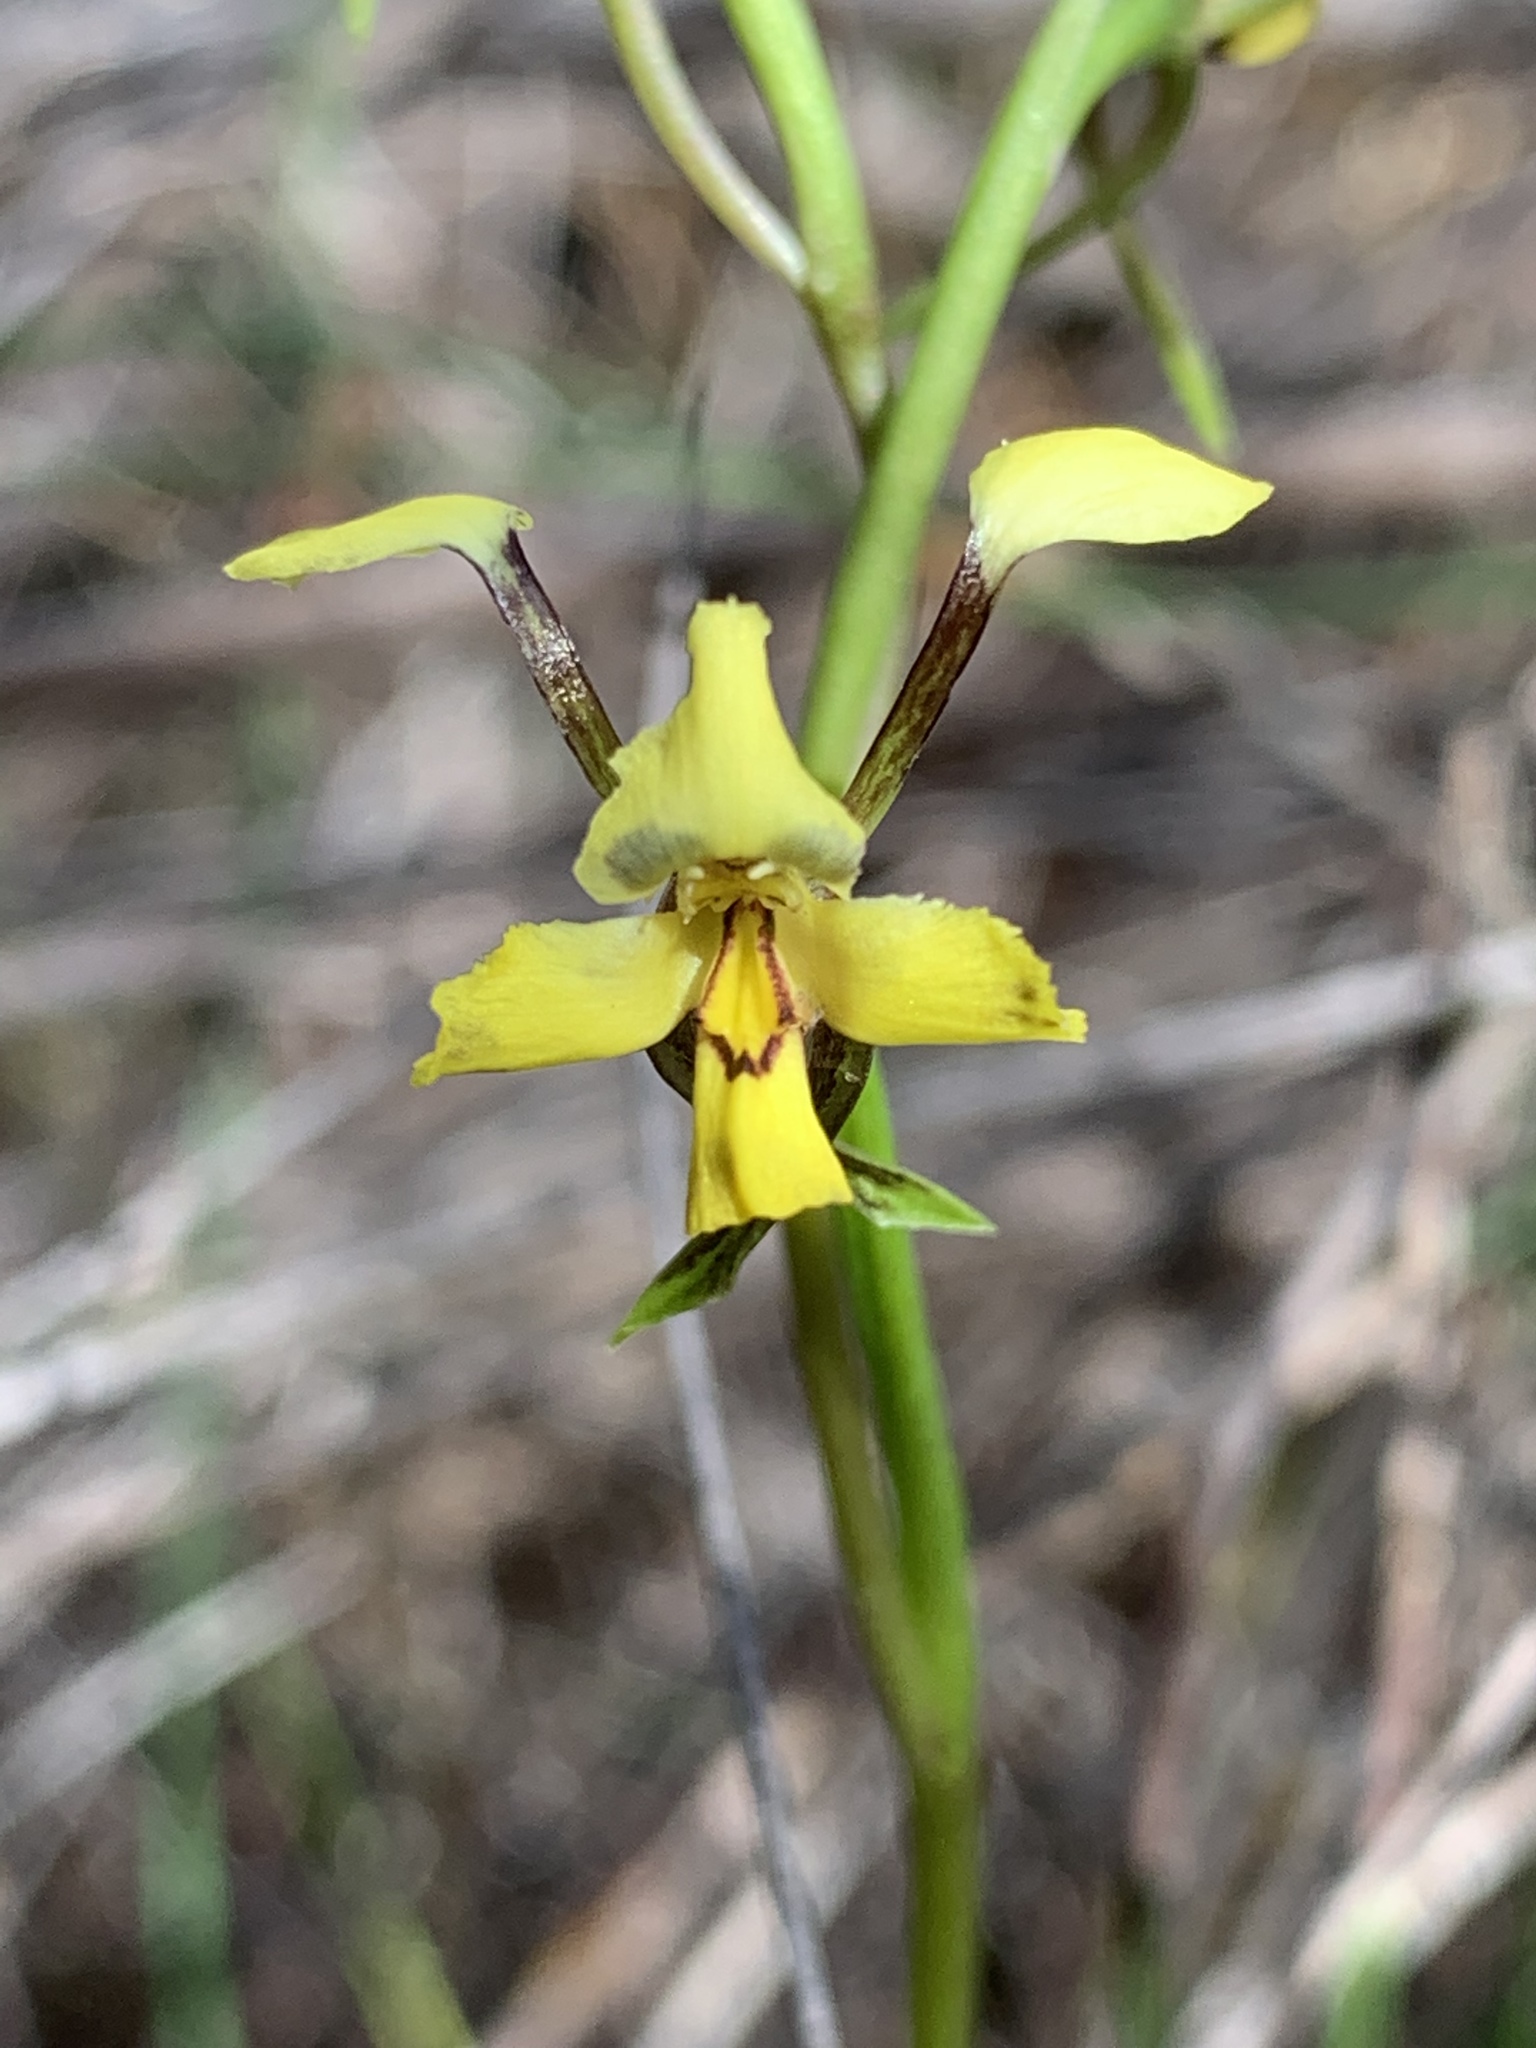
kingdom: Plantae
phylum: Tracheophyta
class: Liliopsida
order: Asparagales
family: Orchidaceae
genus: Diuris
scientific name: Diuris maculata
